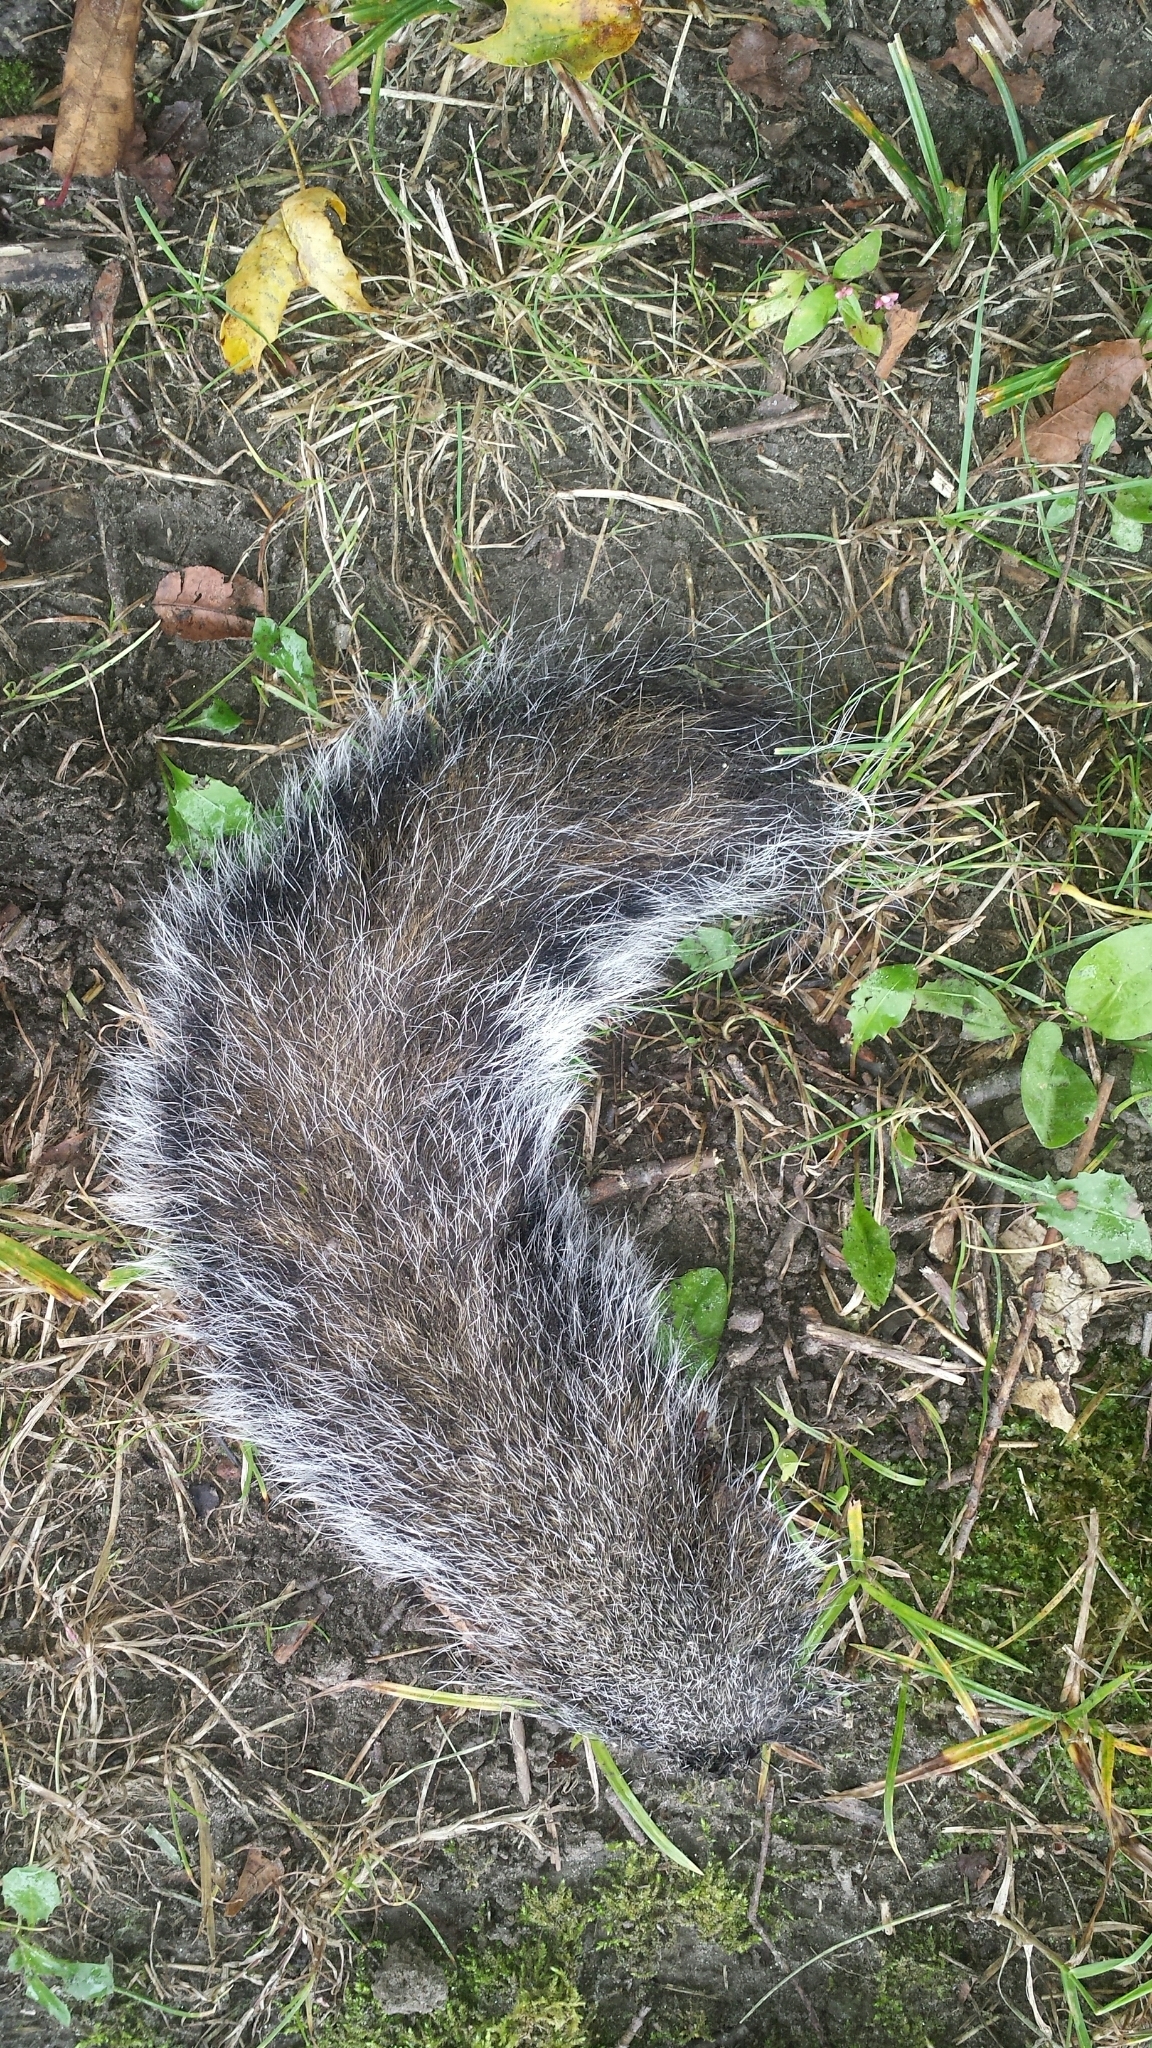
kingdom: Animalia
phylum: Chordata
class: Mammalia
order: Rodentia
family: Sciuridae
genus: Sciurus
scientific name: Sciurus carolinensis
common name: Eastern gray squirrel
